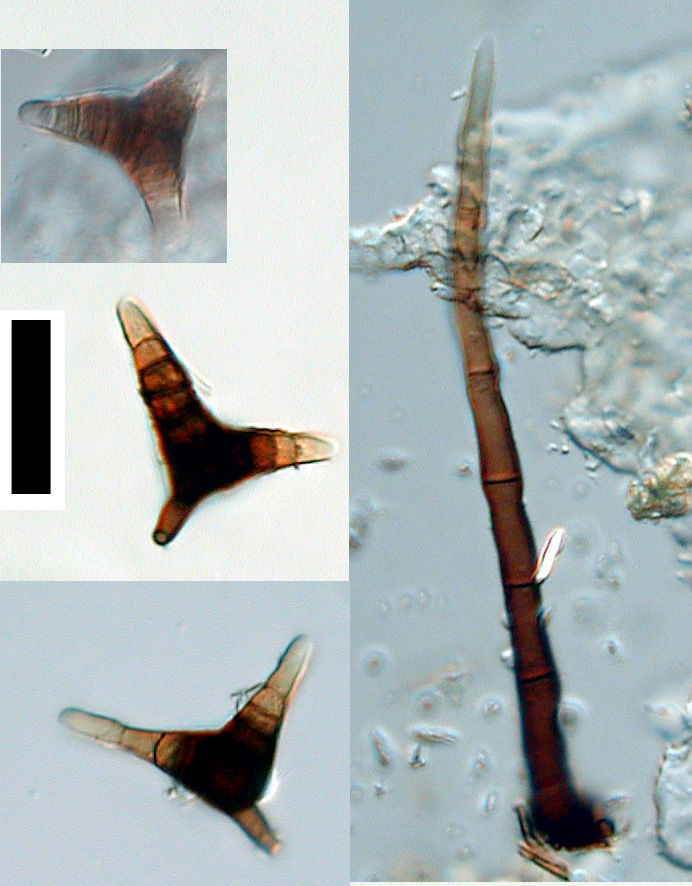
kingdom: Fungi
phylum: Ascomycota
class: Leotiomycetes
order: Helotiales
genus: Triposporium
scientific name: Triposporium verruculosum
